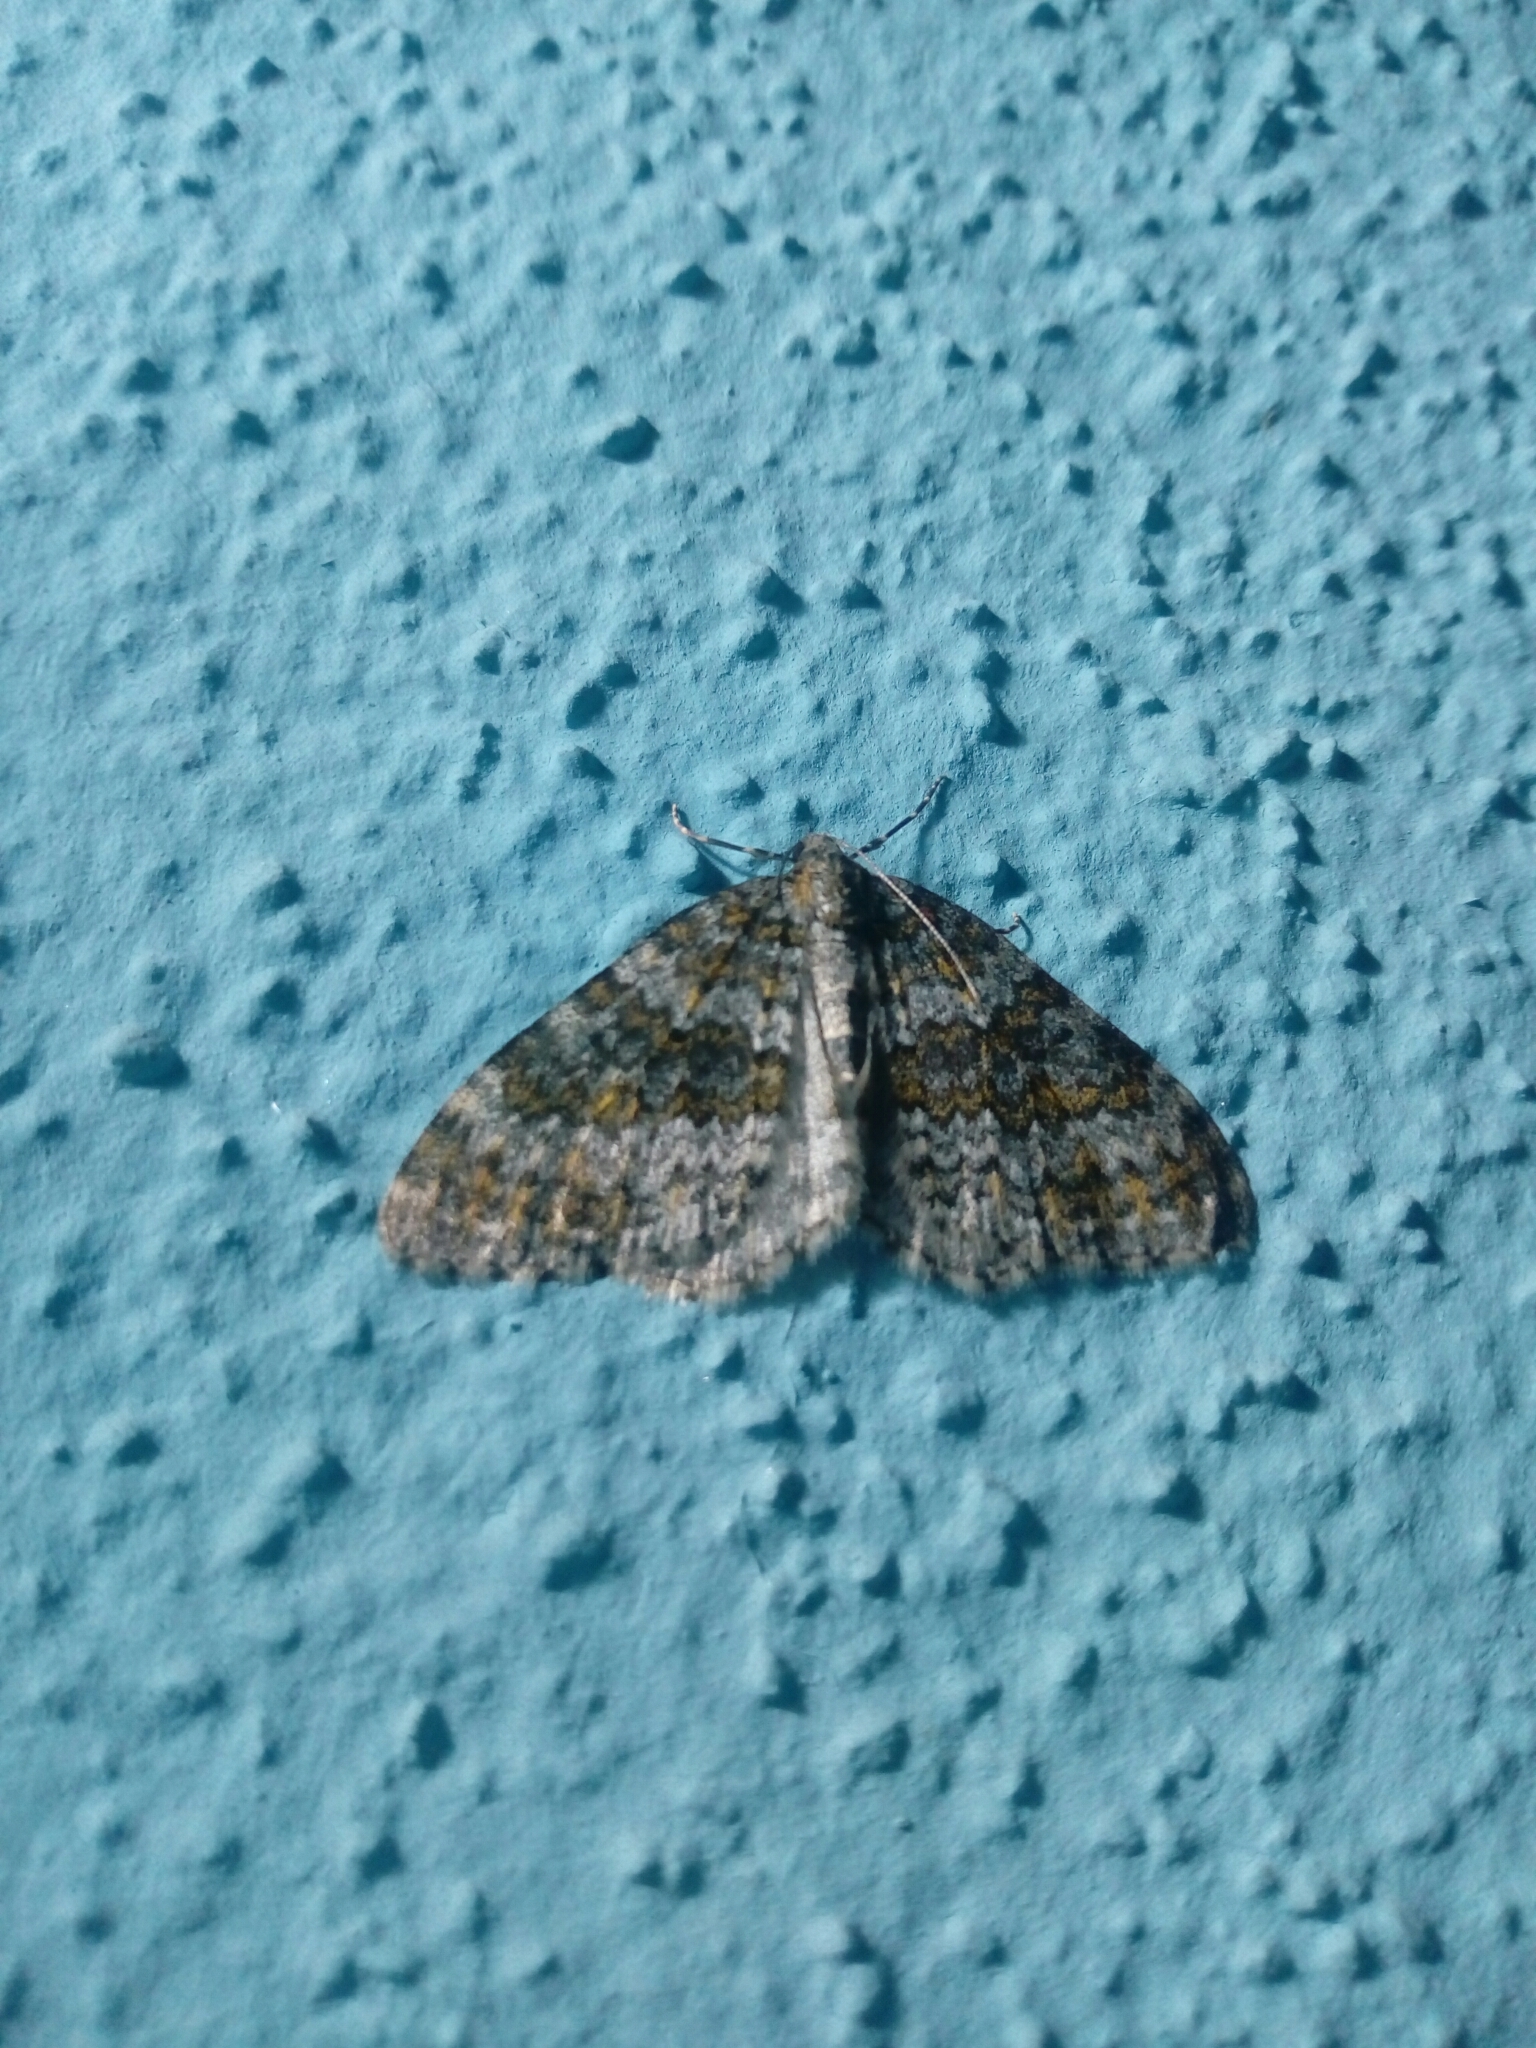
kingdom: Animalia
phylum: Arthropoda
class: Insecta
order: Lepidoptera
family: Geometridae
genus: Entephria
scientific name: Entephria flavicinctata
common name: Yellow-ringed carpet
